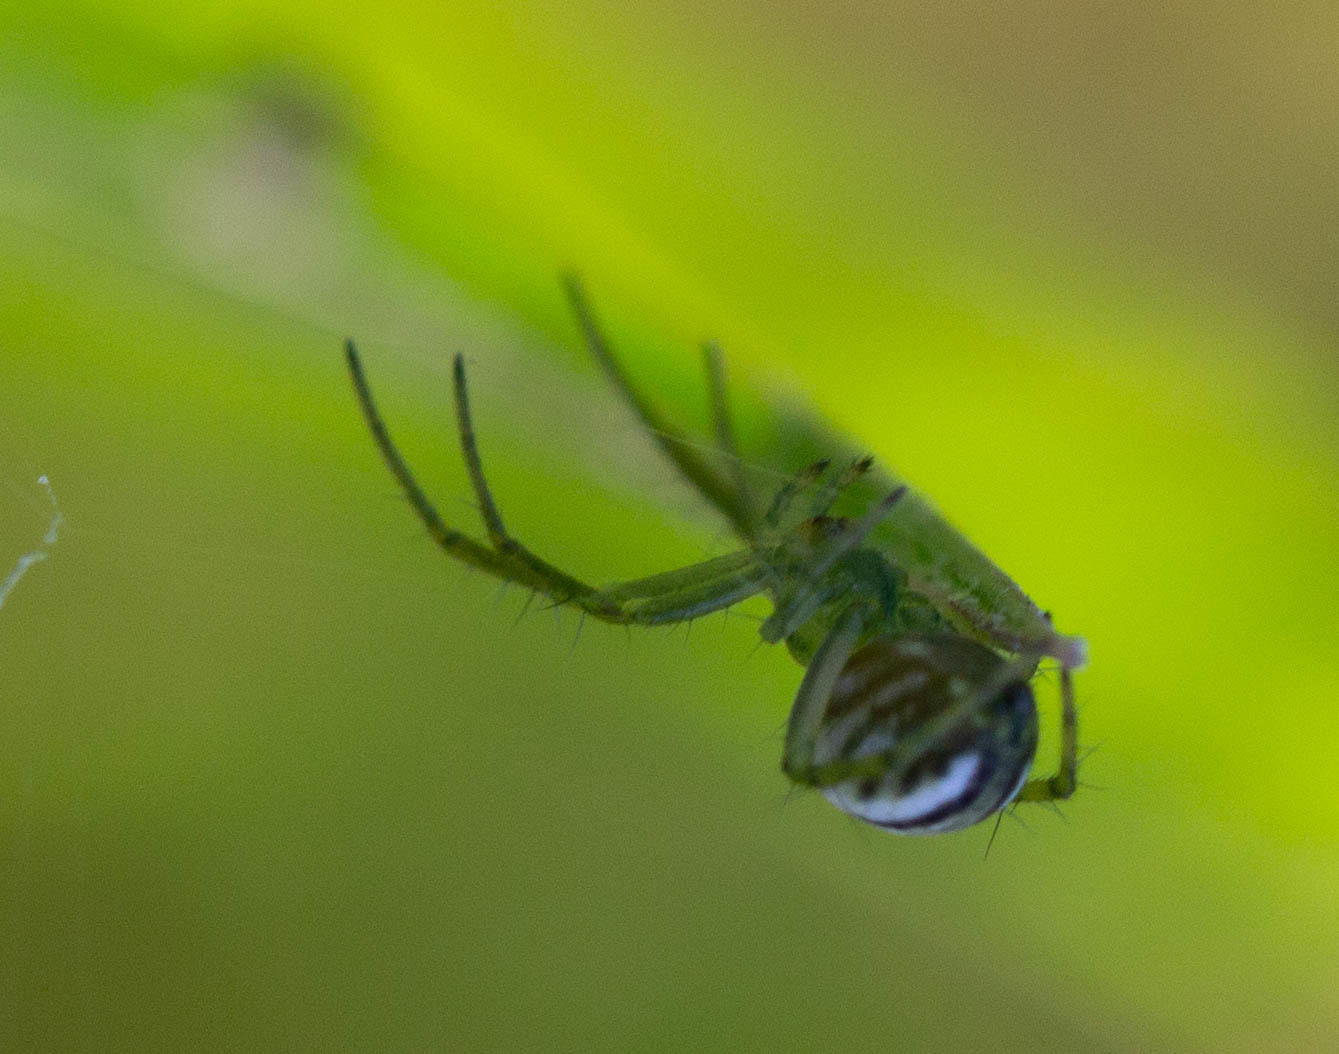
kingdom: Animalia
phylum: Arthropoda
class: Arachnida
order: Araneae
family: Araneidae
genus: Mangora
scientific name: Mangora gibberosa
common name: Lined orbweaver
